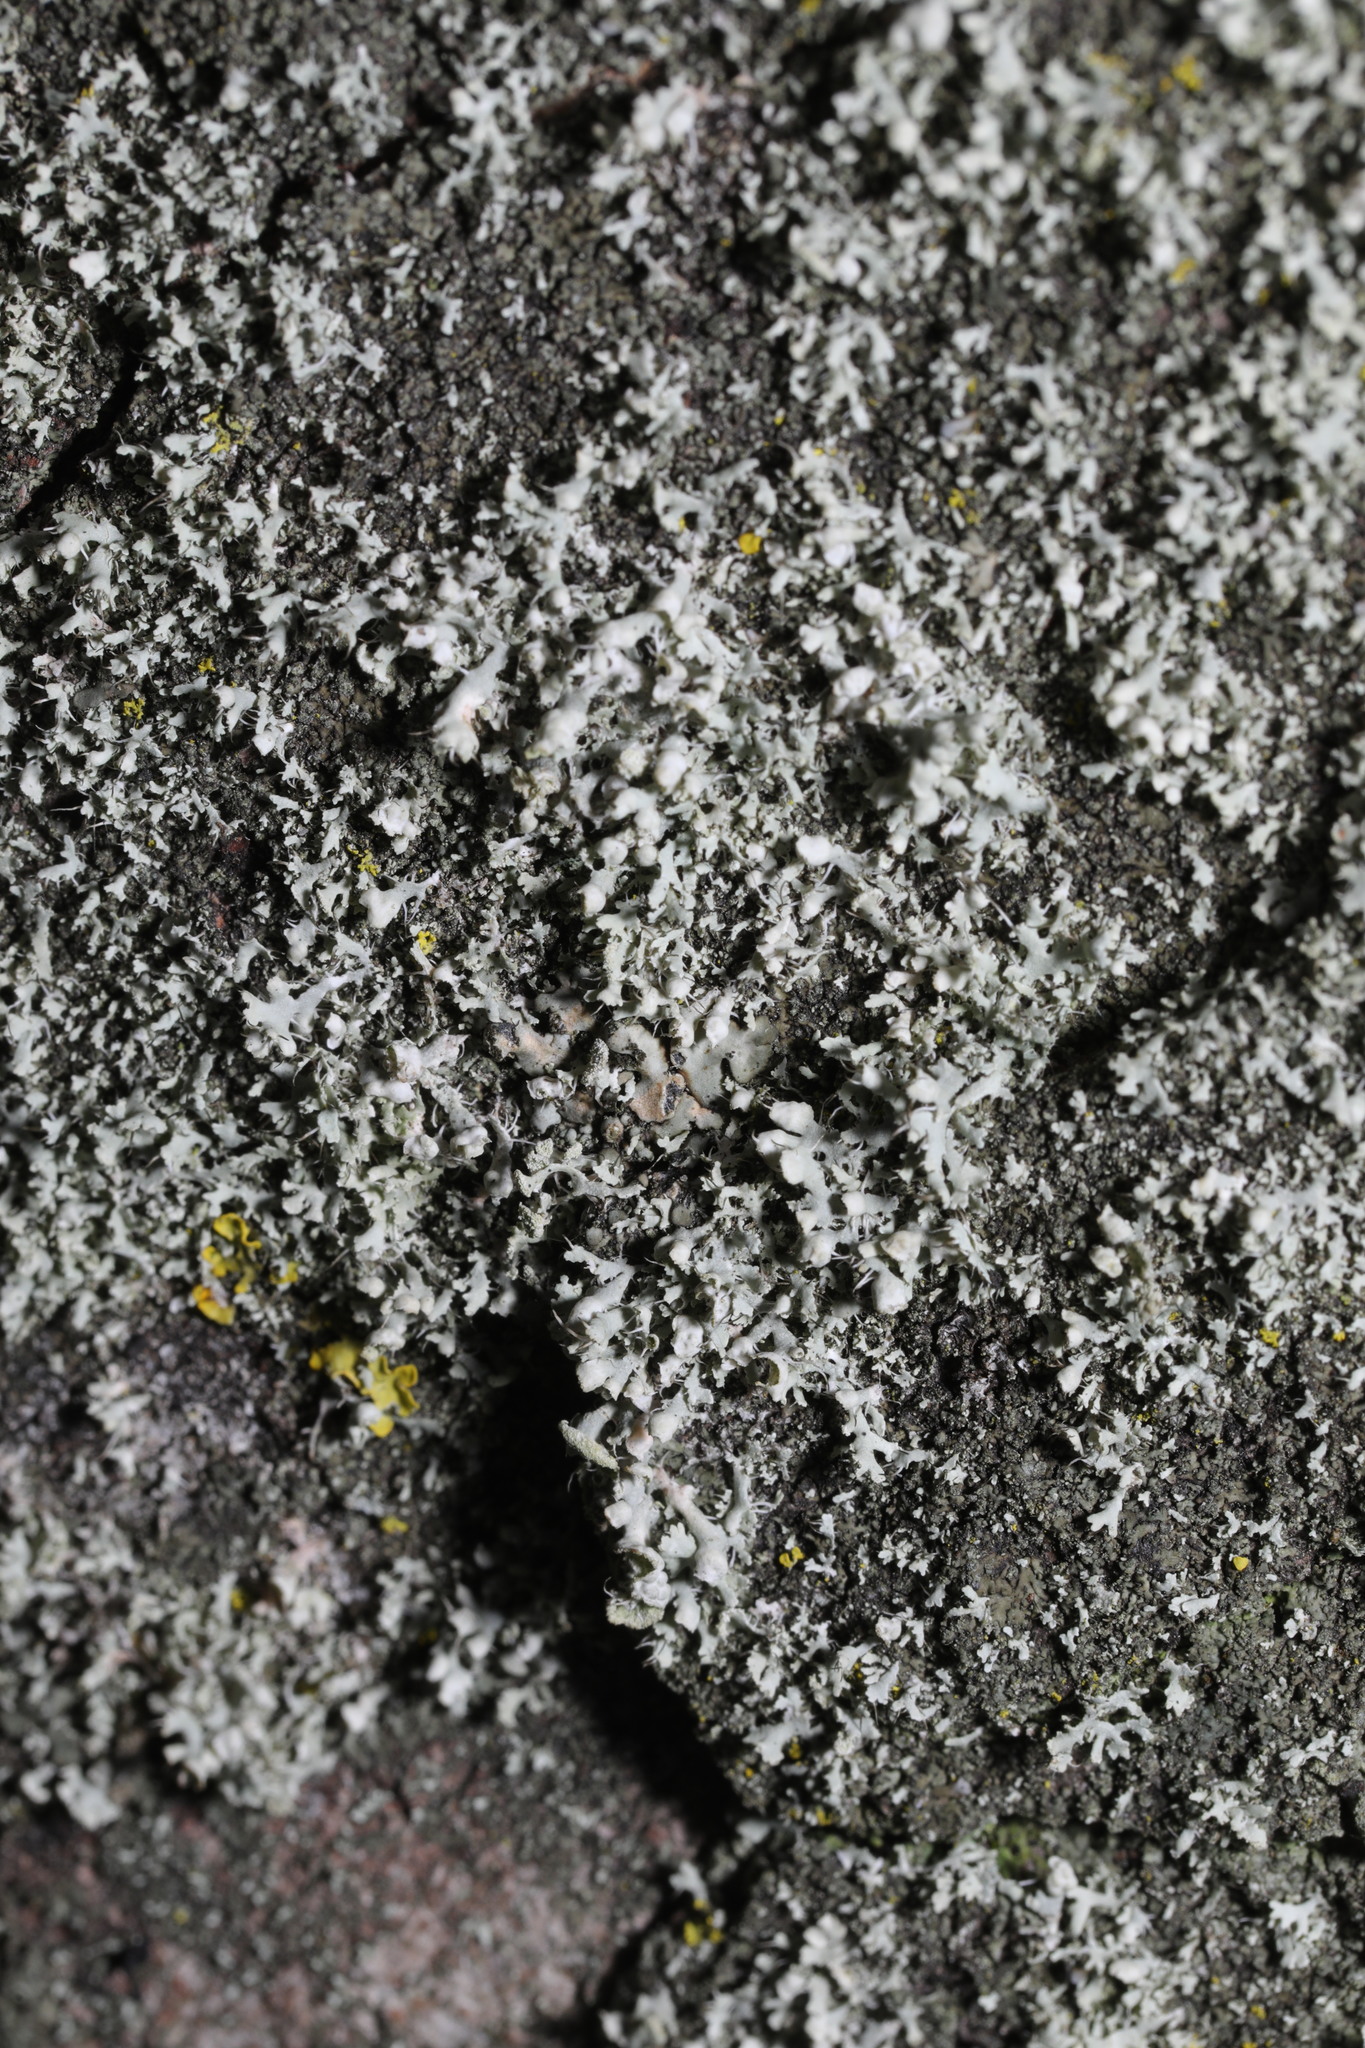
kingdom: Fungi
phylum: Ascomycota
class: Lecanoromycetes
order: Caliciales
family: Physciaceae
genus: Physcia
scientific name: Physcia adscendens
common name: Hooded rosette lichen
